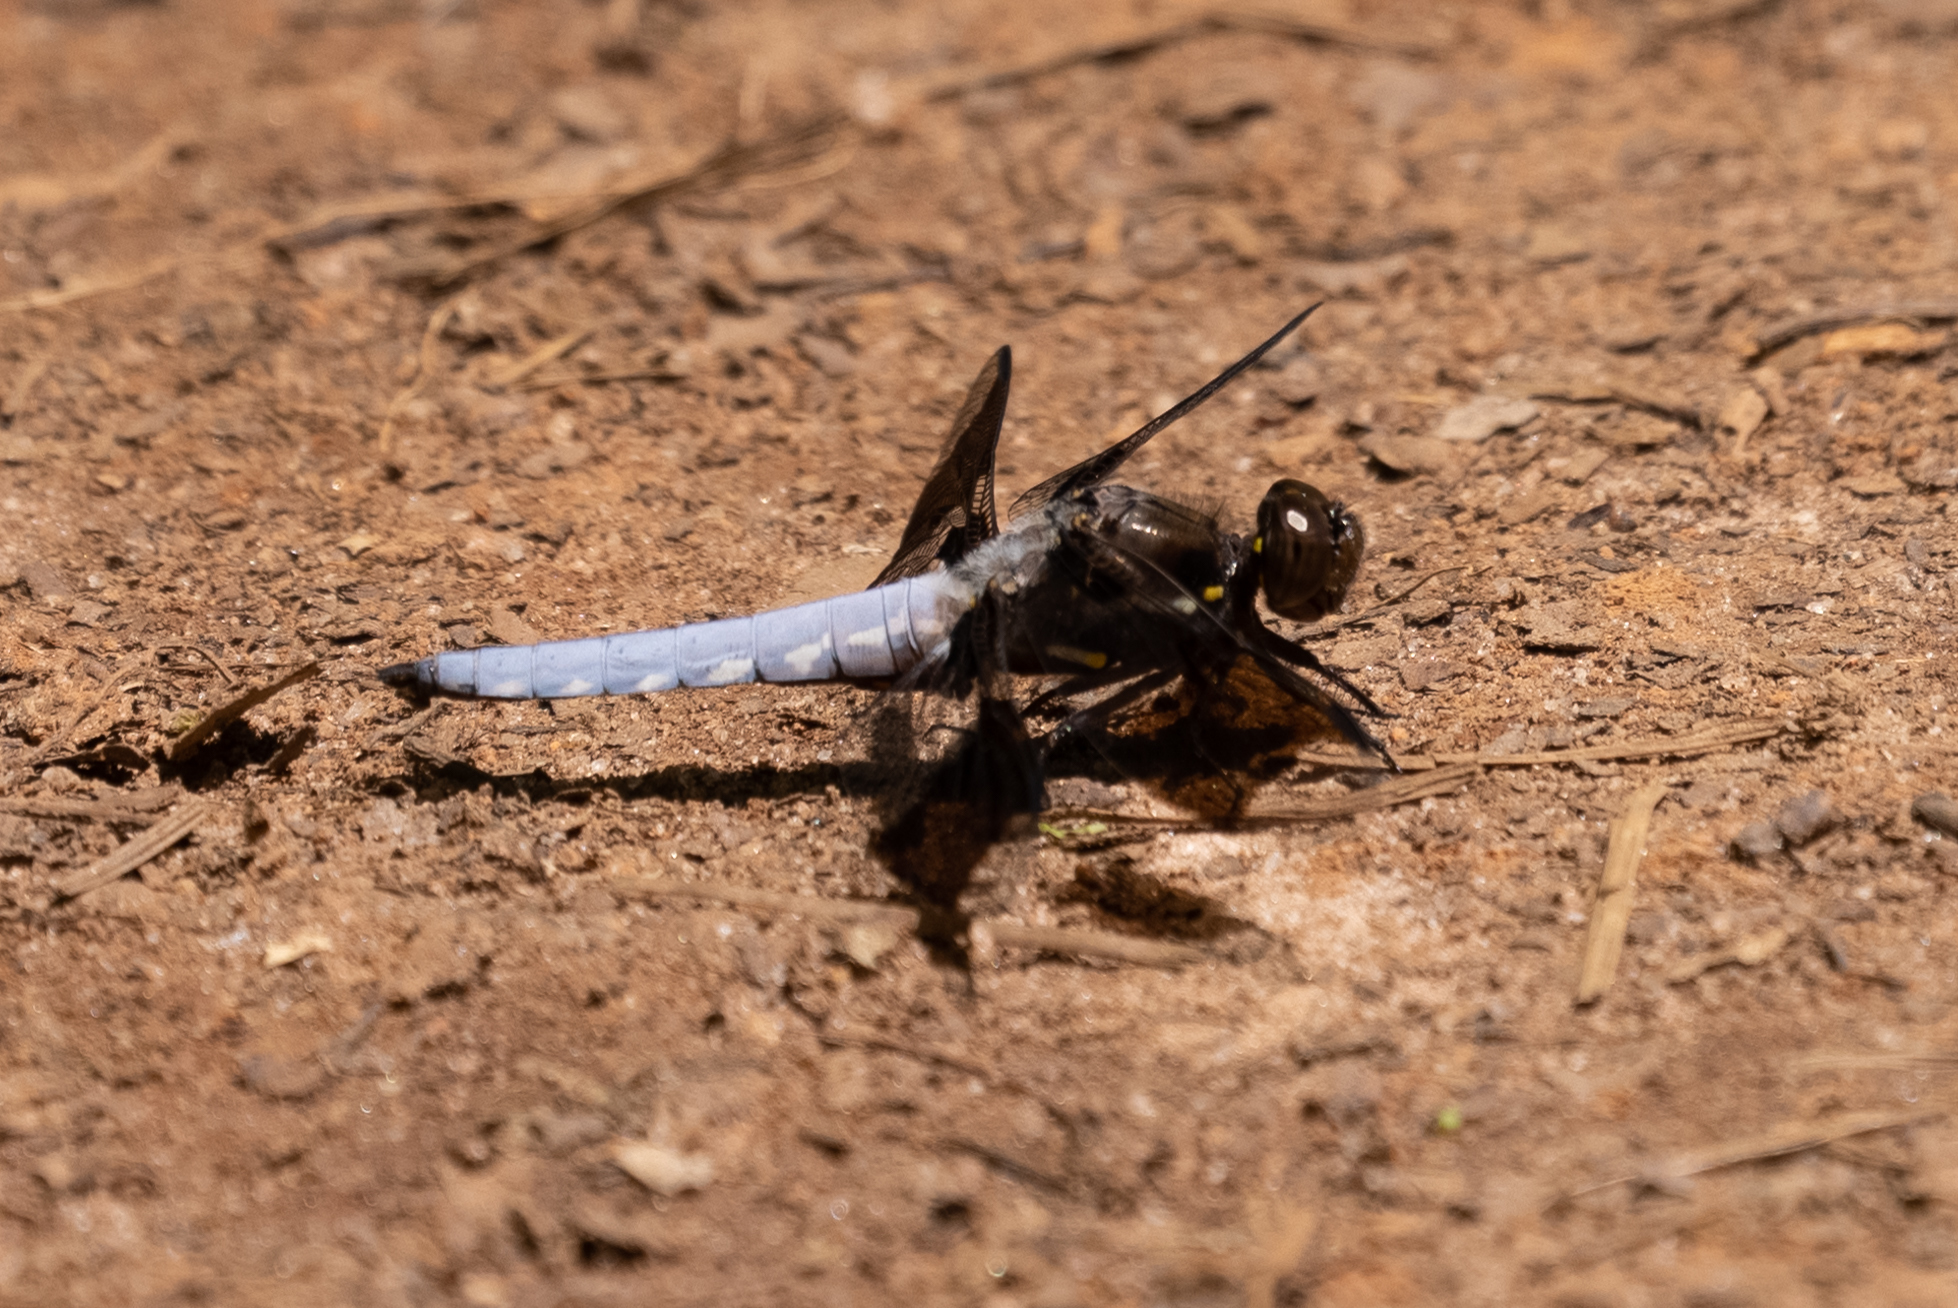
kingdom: Animalia
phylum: Arthropoda
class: Insecta
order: Odonata
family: Libellulidae
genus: Plathemis
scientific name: Plathemis lydia
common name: Common whitetail
